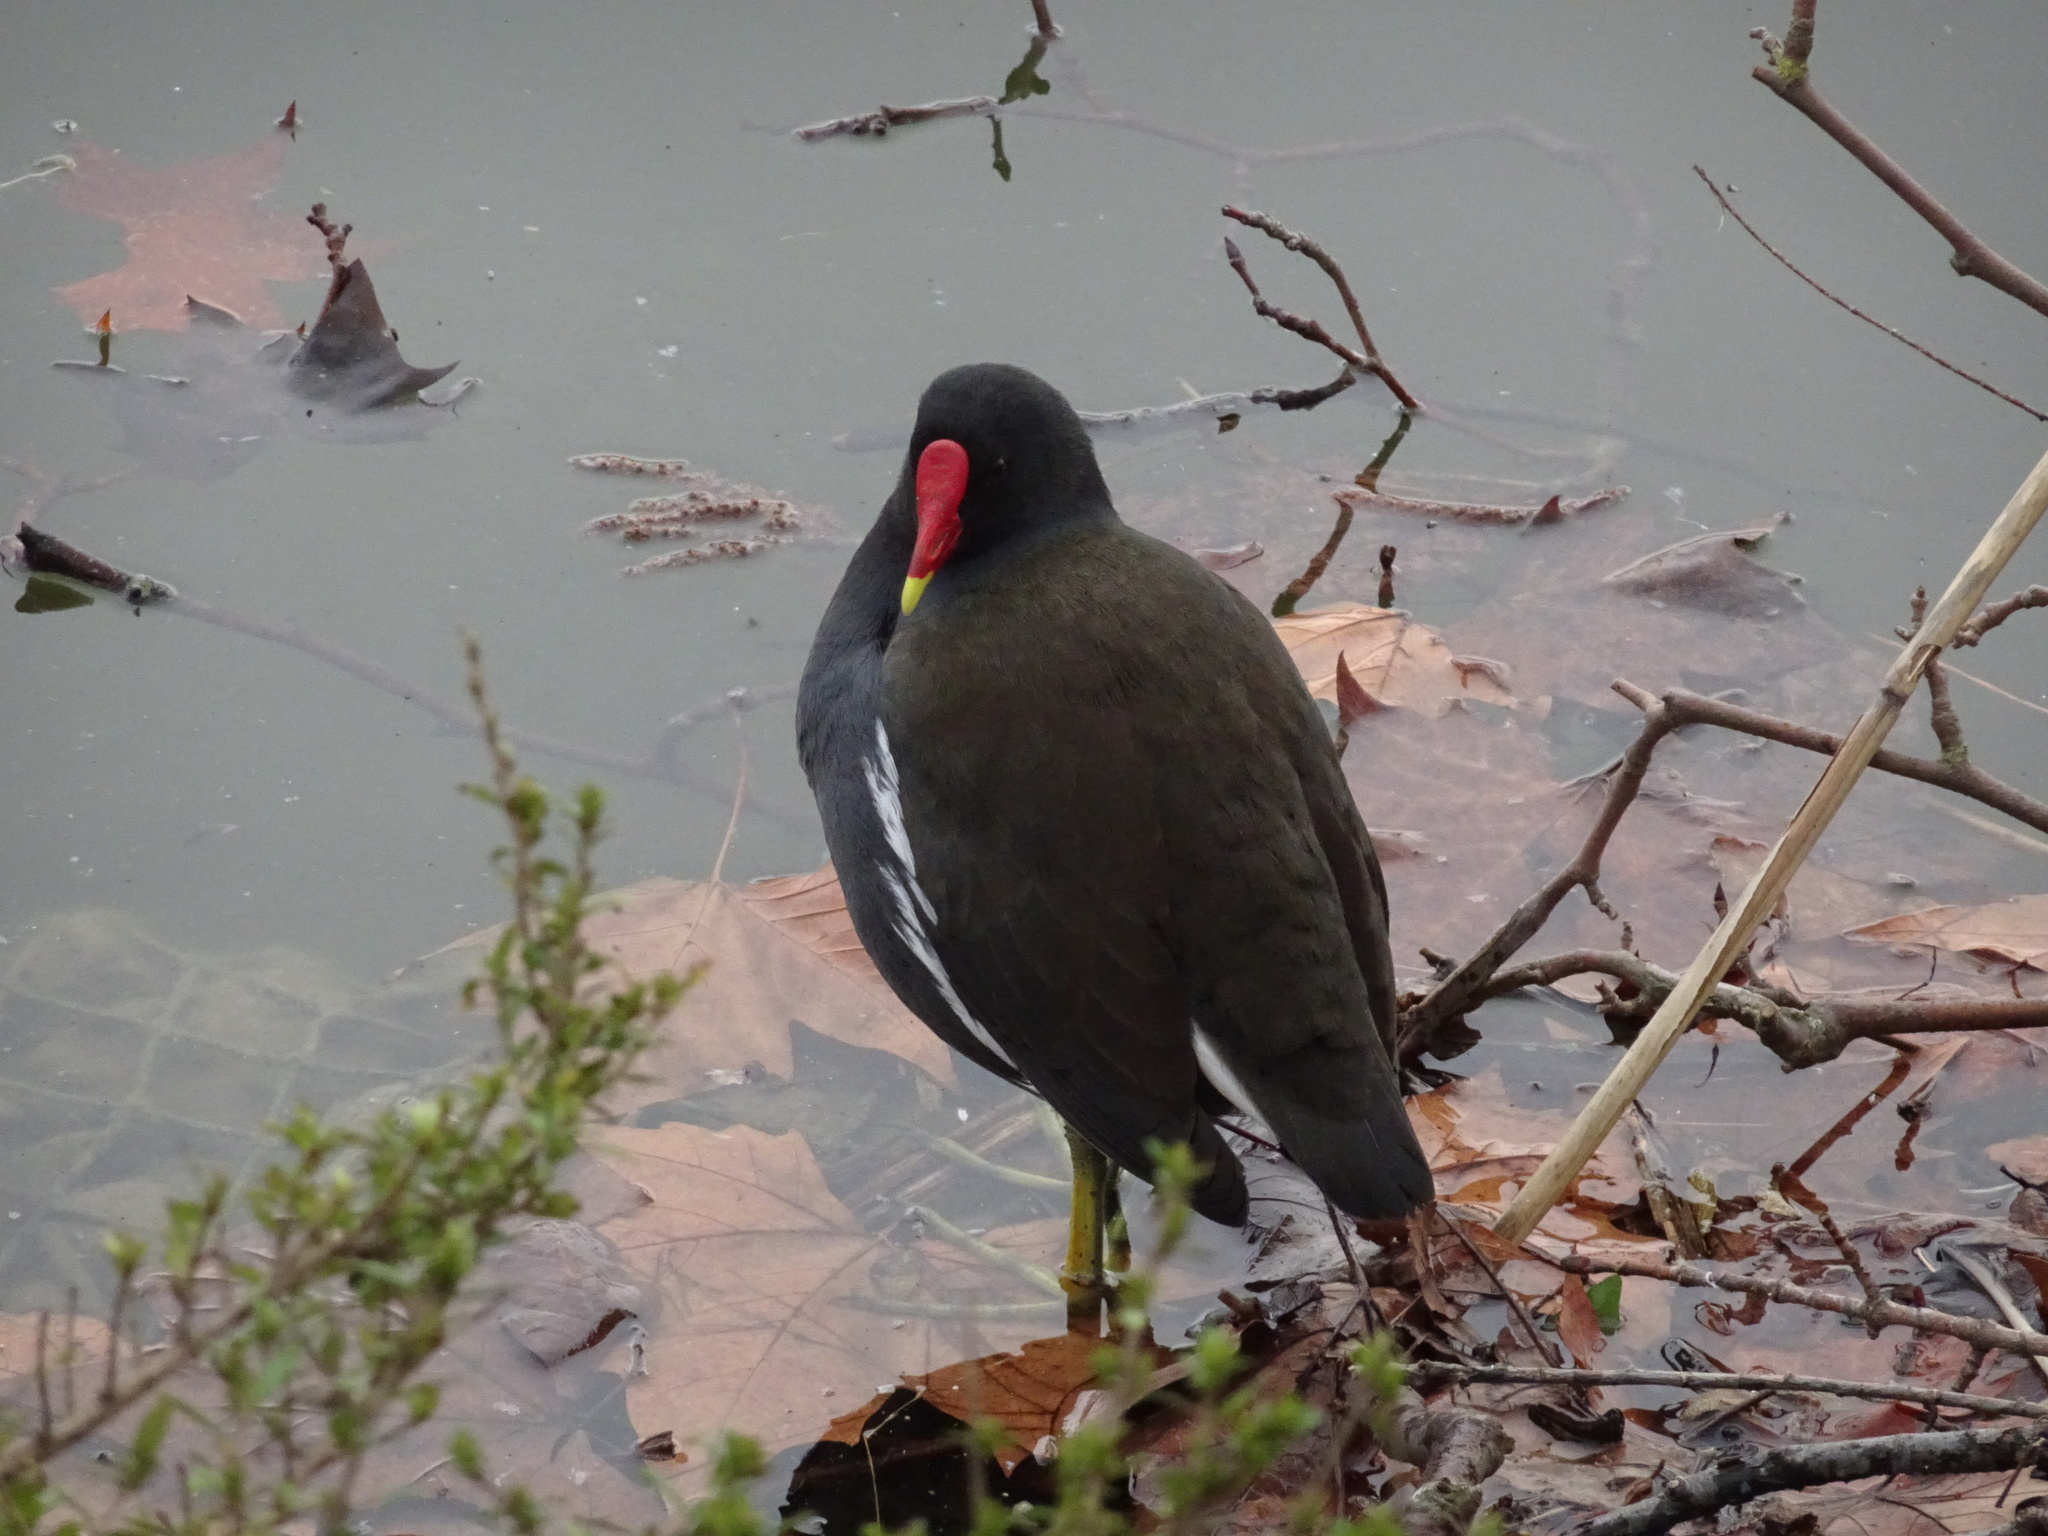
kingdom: Animalia
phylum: Chordata
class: Aves
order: Gruiformes
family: Rallidae
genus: Gallinula
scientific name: Gallinula chloropus
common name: Common moorhen
